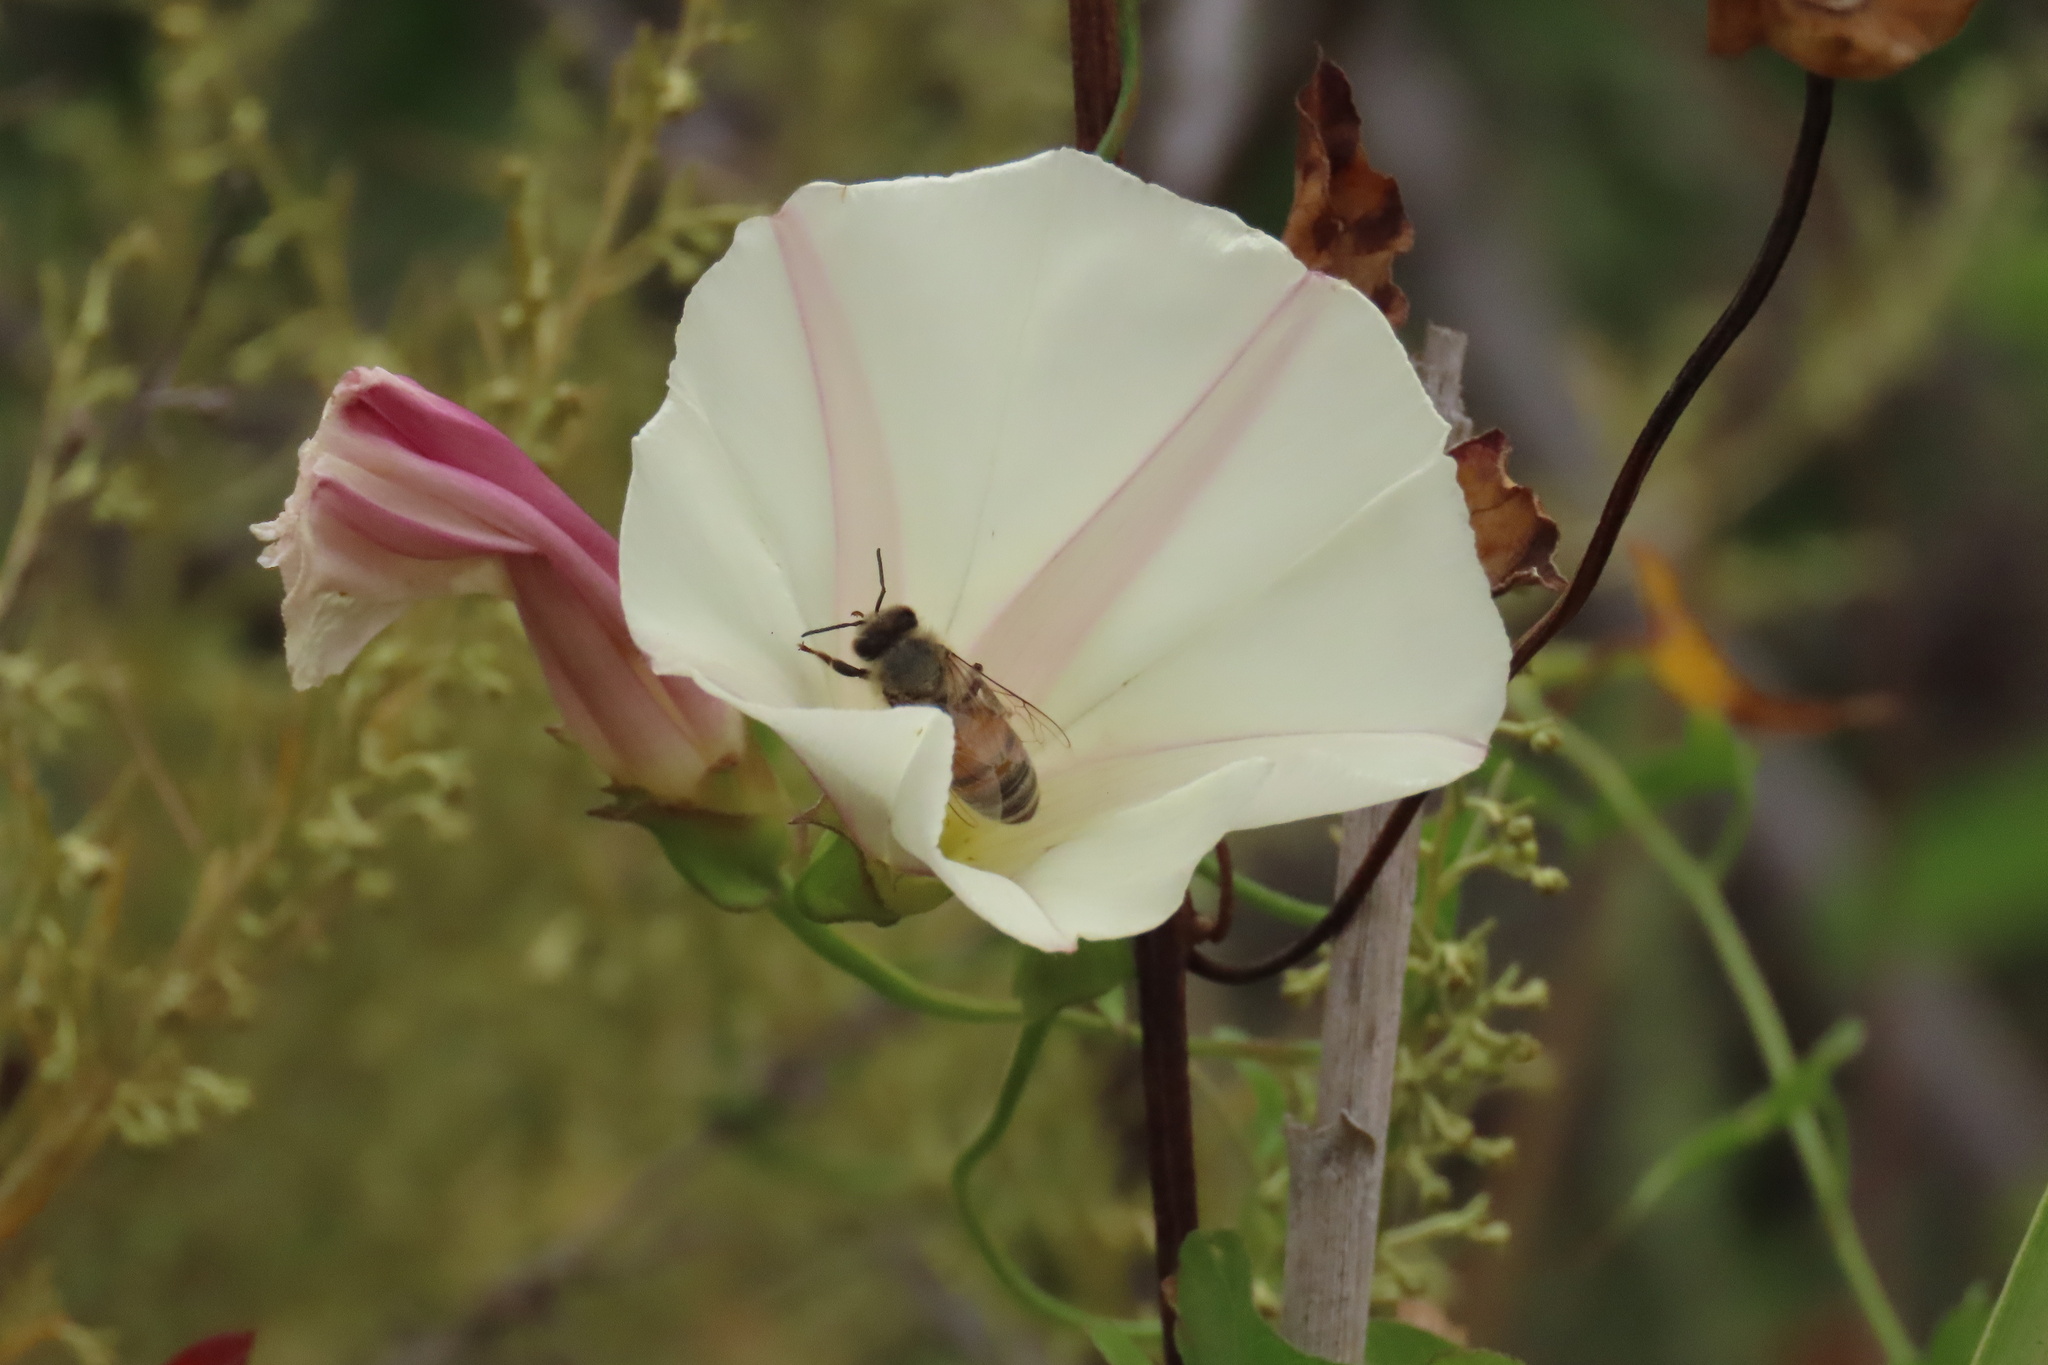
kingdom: Animalia
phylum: Arthropoda
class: Insecta
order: Hymenoptera
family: Apidae
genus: Apis
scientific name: Apis mellifera
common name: Honey bee
